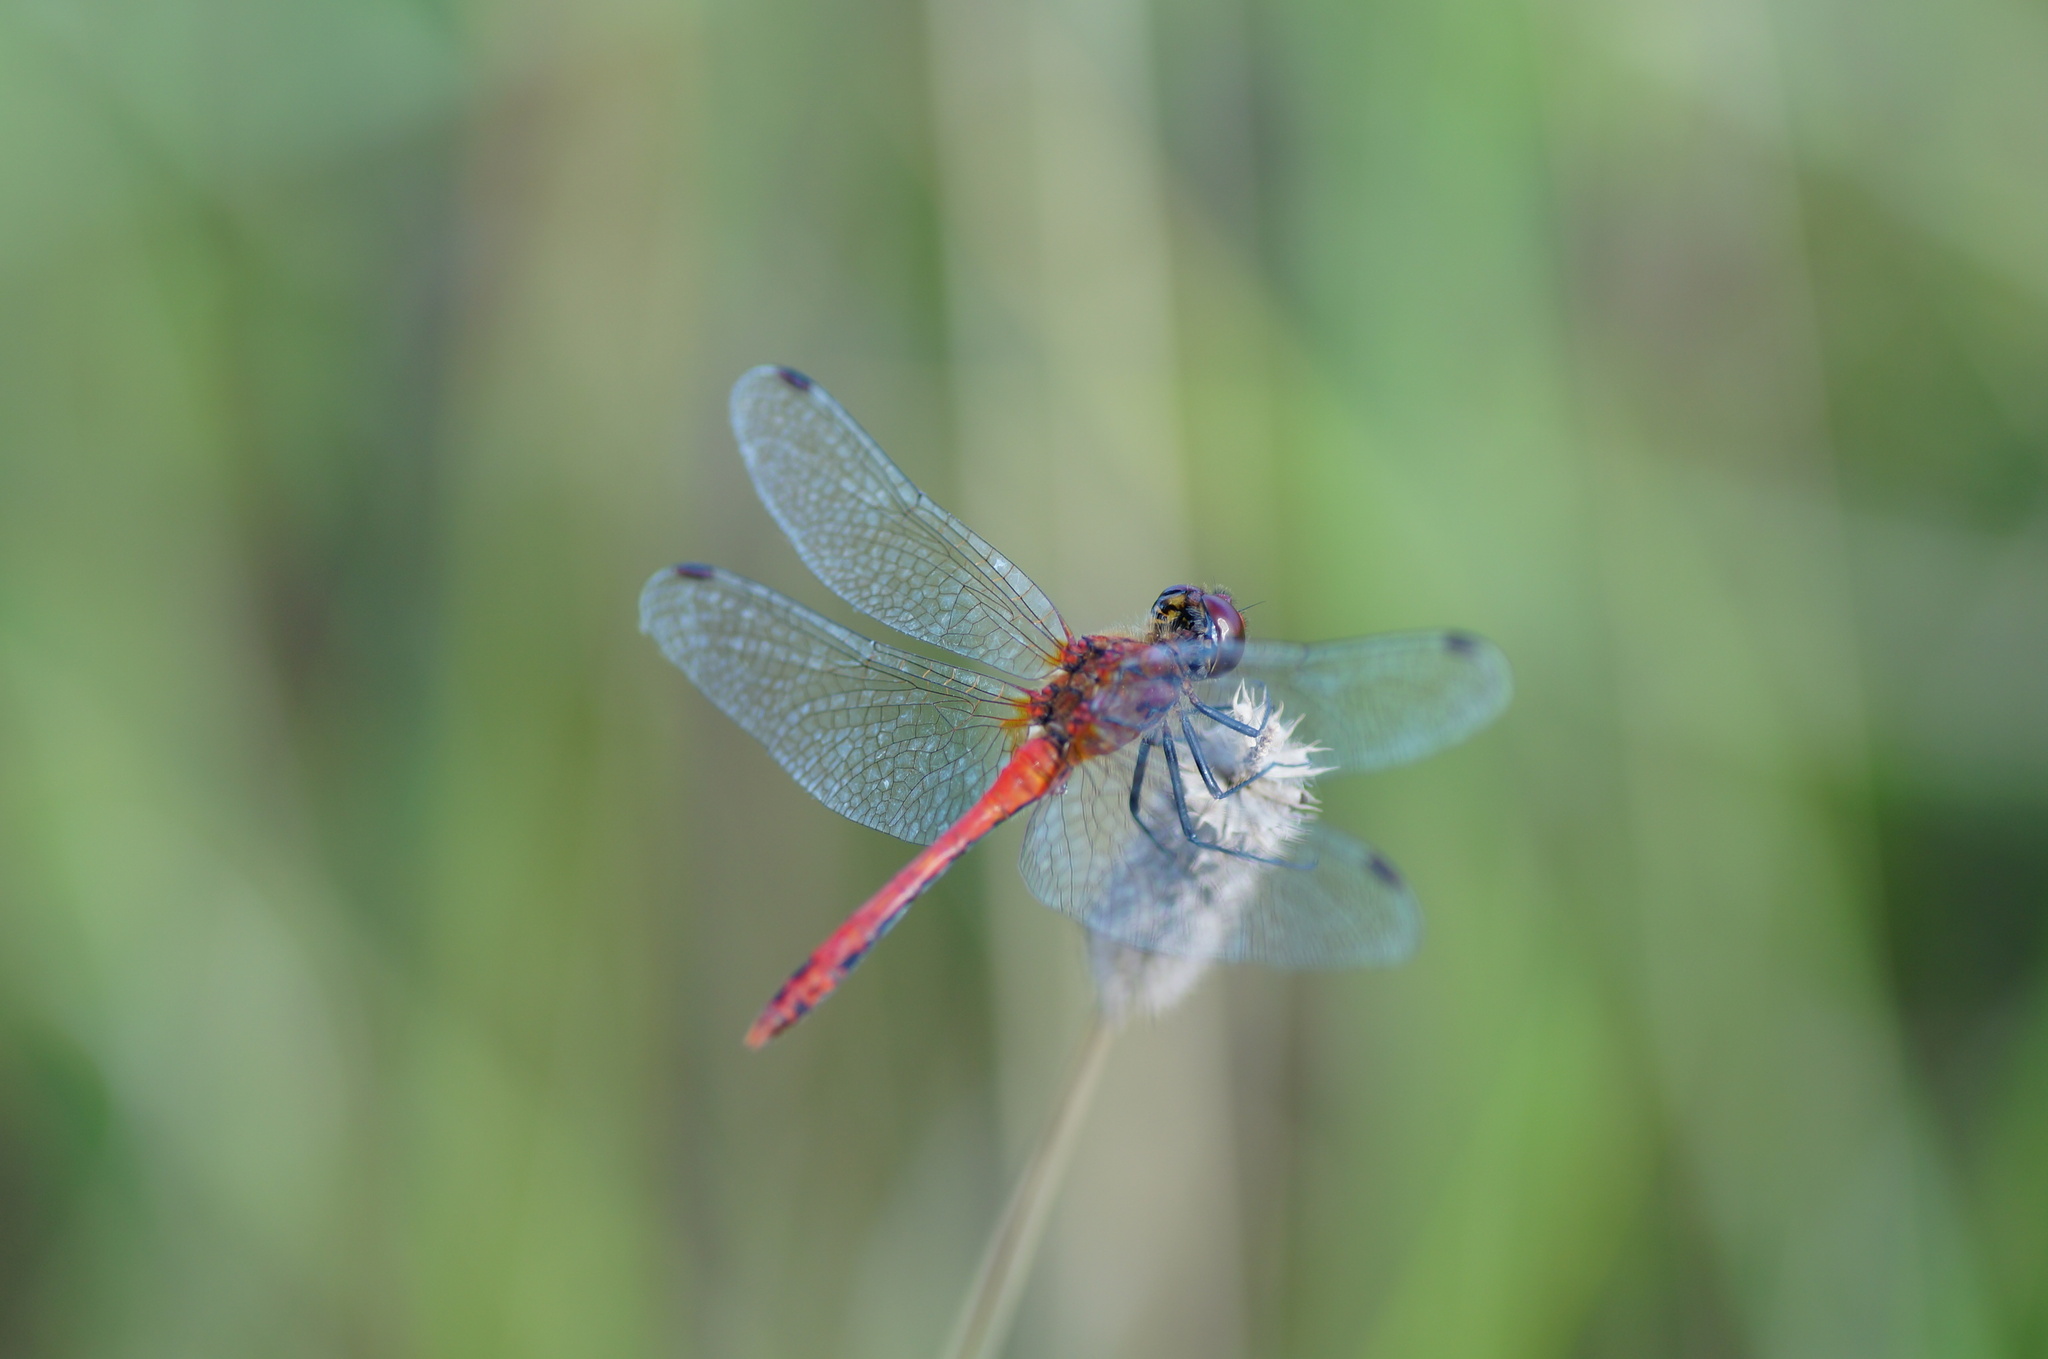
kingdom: Animalia
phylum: Arthropoda
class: Insecta
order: Odonata
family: Libellulidae
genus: Sympetrum
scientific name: Sympetrum sanguineum
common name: Ruddy darter
